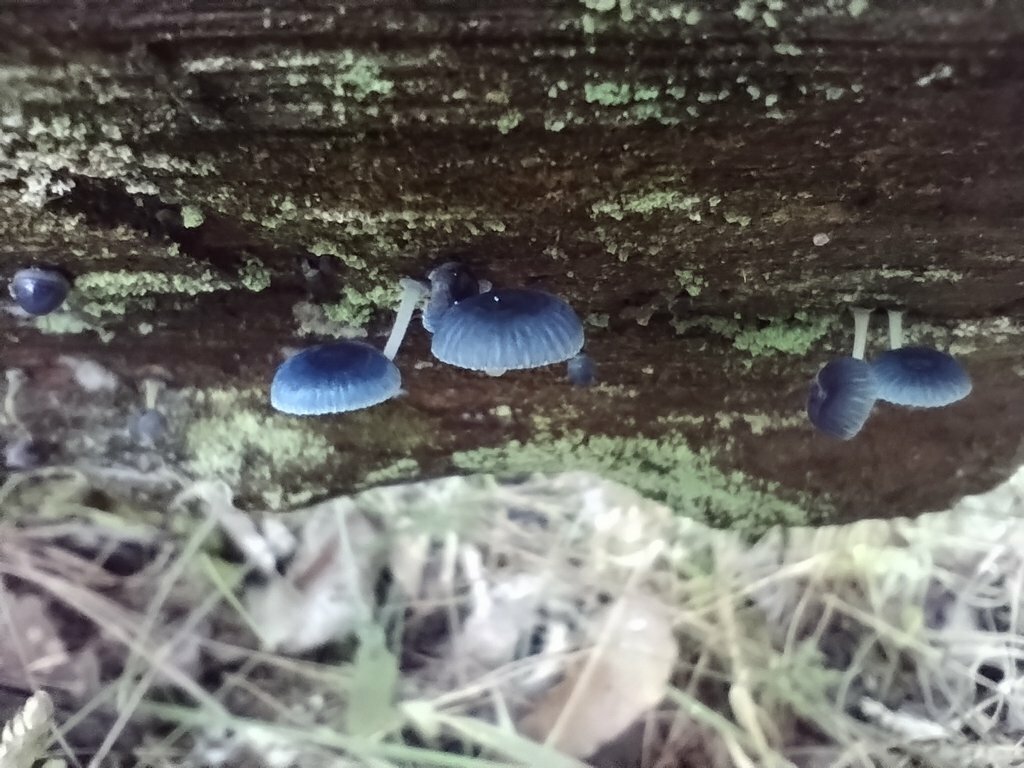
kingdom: Fungi
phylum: Basidiomycota
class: Agaricomycetes
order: Agaricales
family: Mycenaceae
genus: Mycena
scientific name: Mycena interrupta
